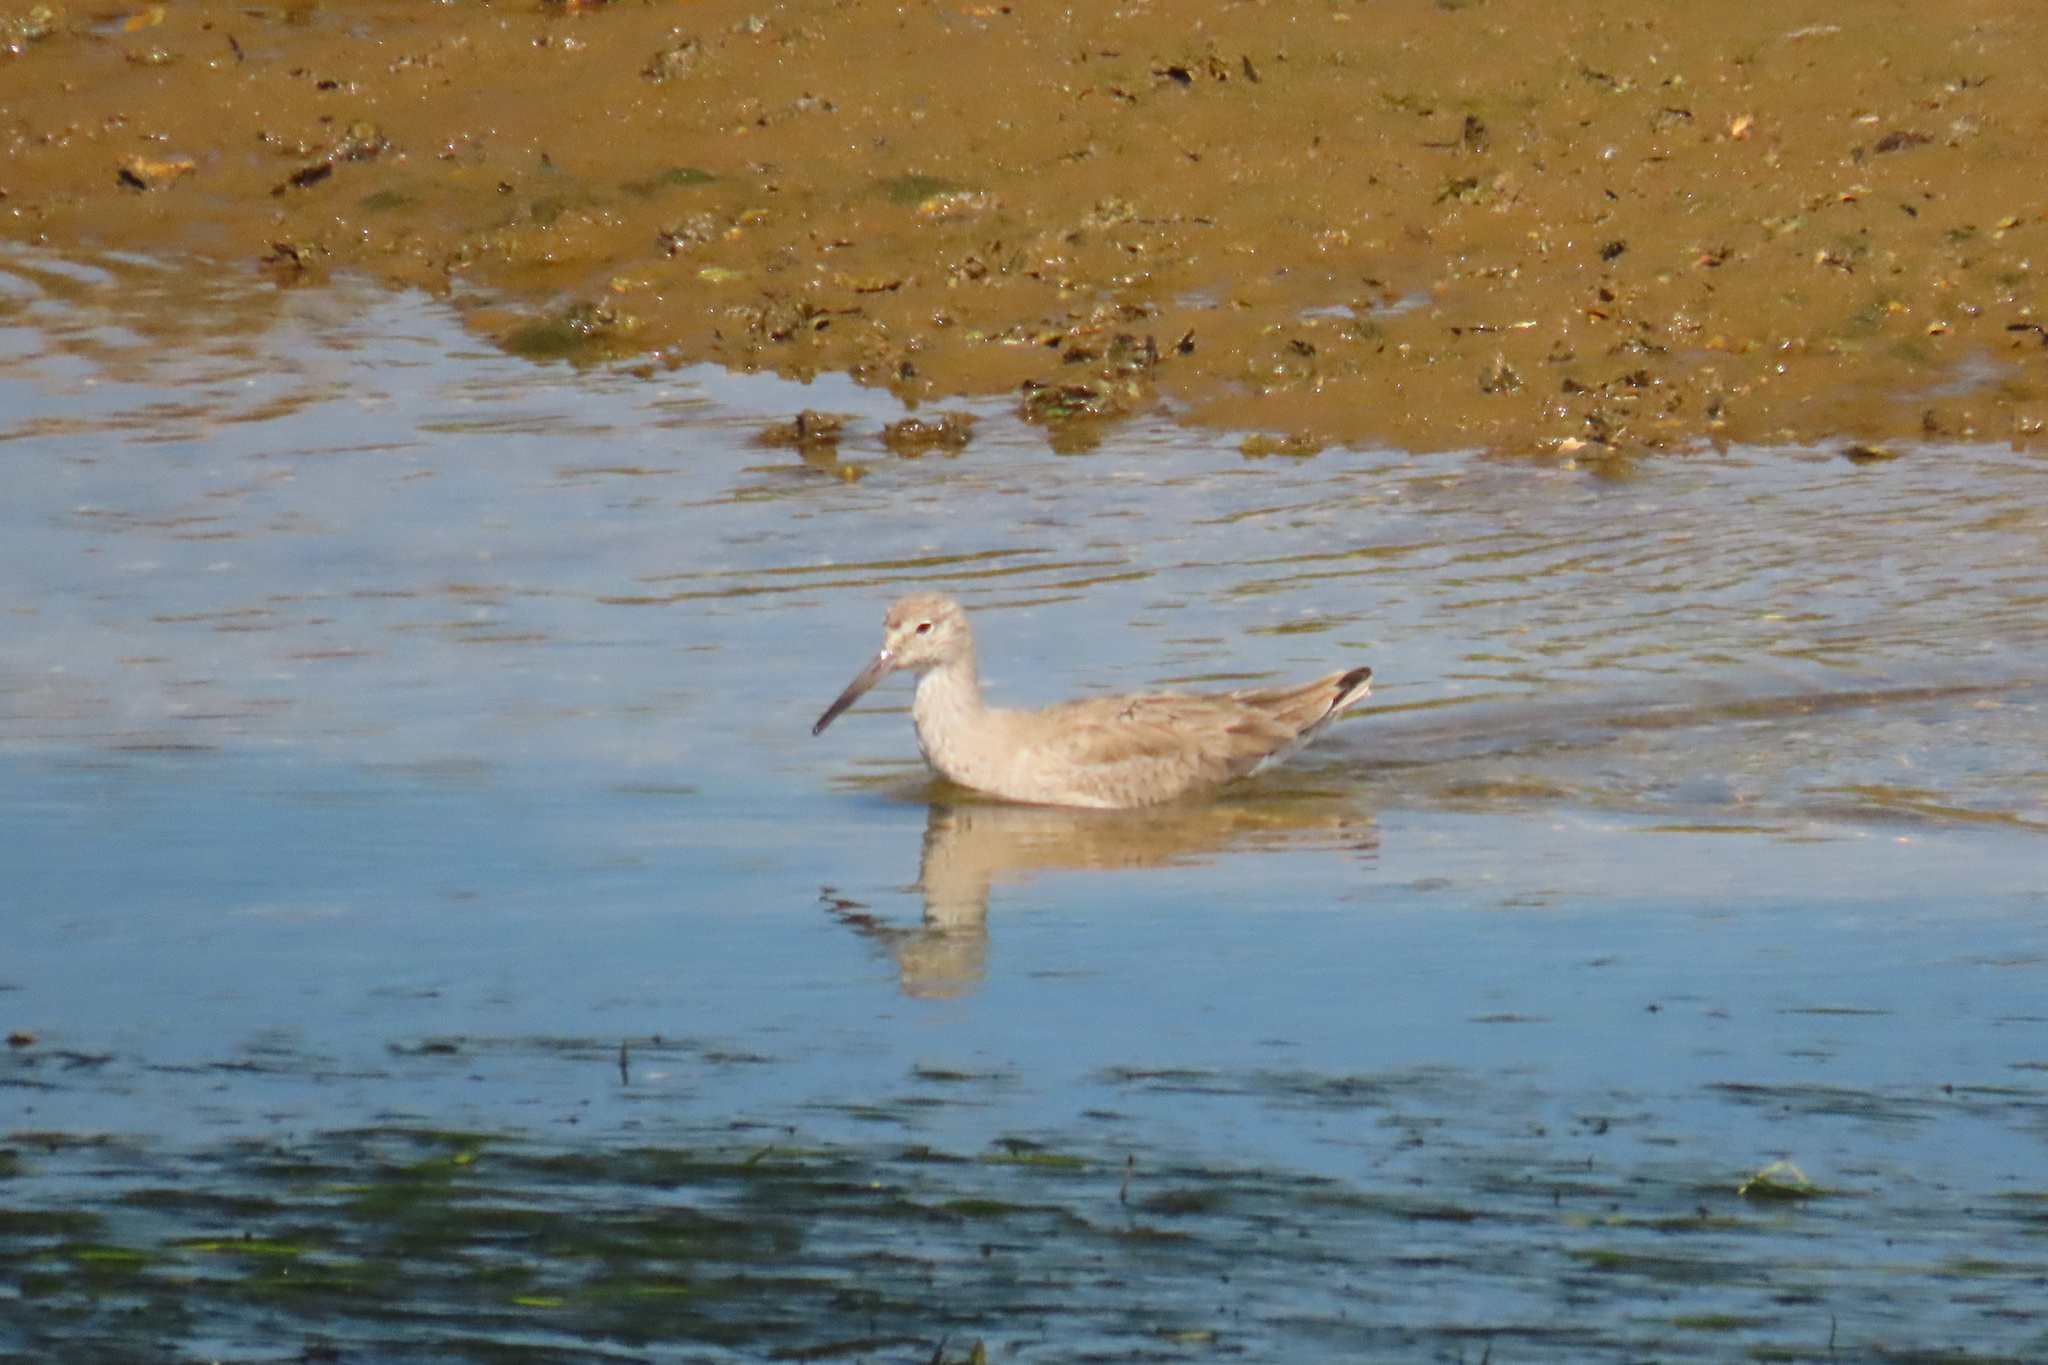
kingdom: Animalia
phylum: Chordata
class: Aves
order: Charadriiformes
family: Scolopacidae
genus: Tringa
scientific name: Tringa semipalmata
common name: Willet
